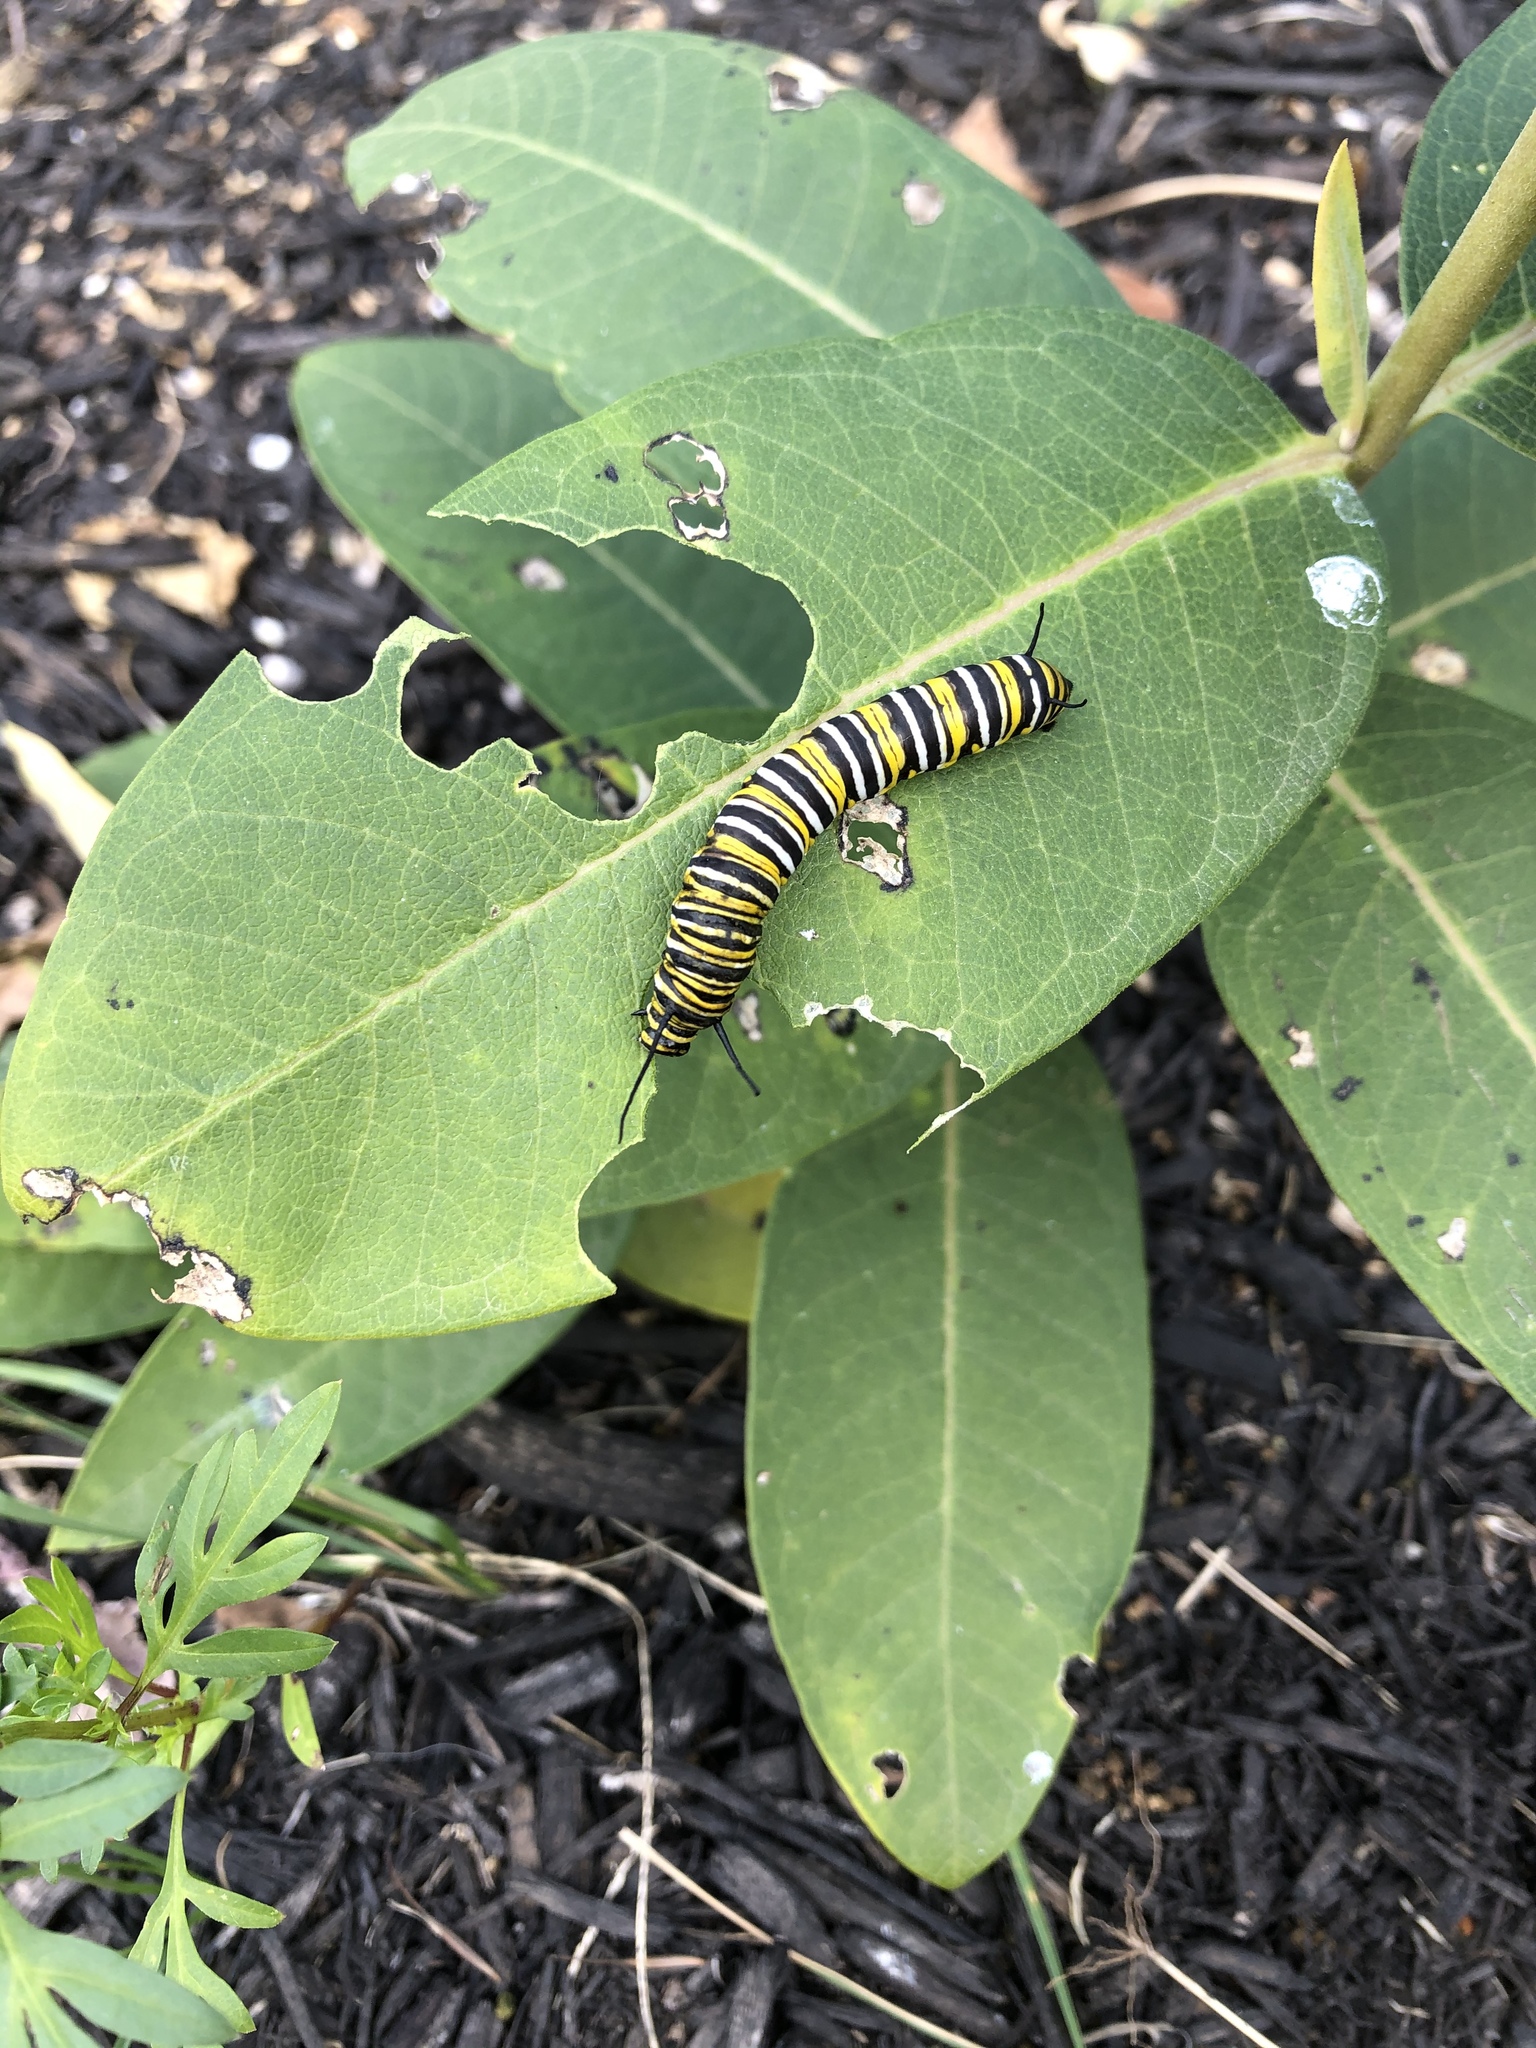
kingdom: Animalia
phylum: Arthropoda
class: Insecta
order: Lepidoptera
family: Nymphalidae
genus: Danaus
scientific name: Danaus plexippus
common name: Monarch
